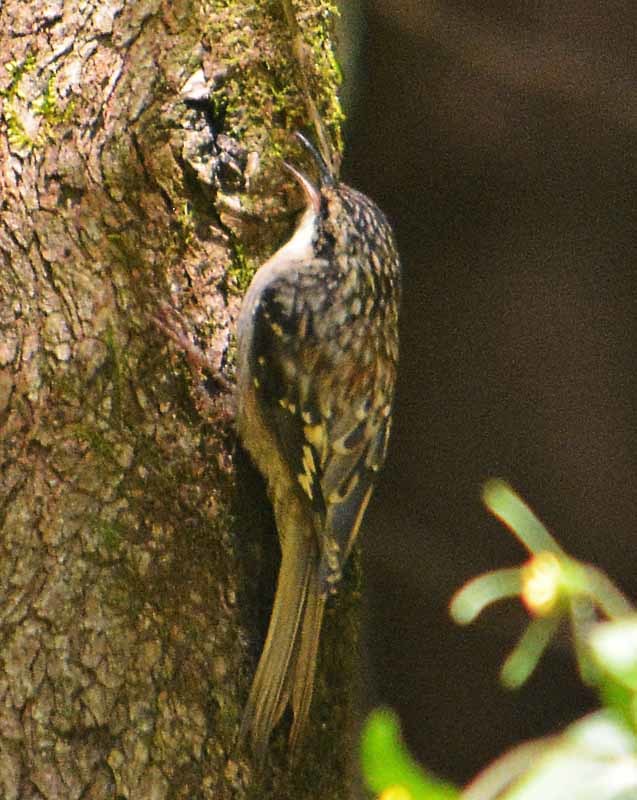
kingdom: Animalia
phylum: Chordata
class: Aves
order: Passeriformes
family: Certhiidae
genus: Certhia
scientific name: Certhia americana
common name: Brown creeper
